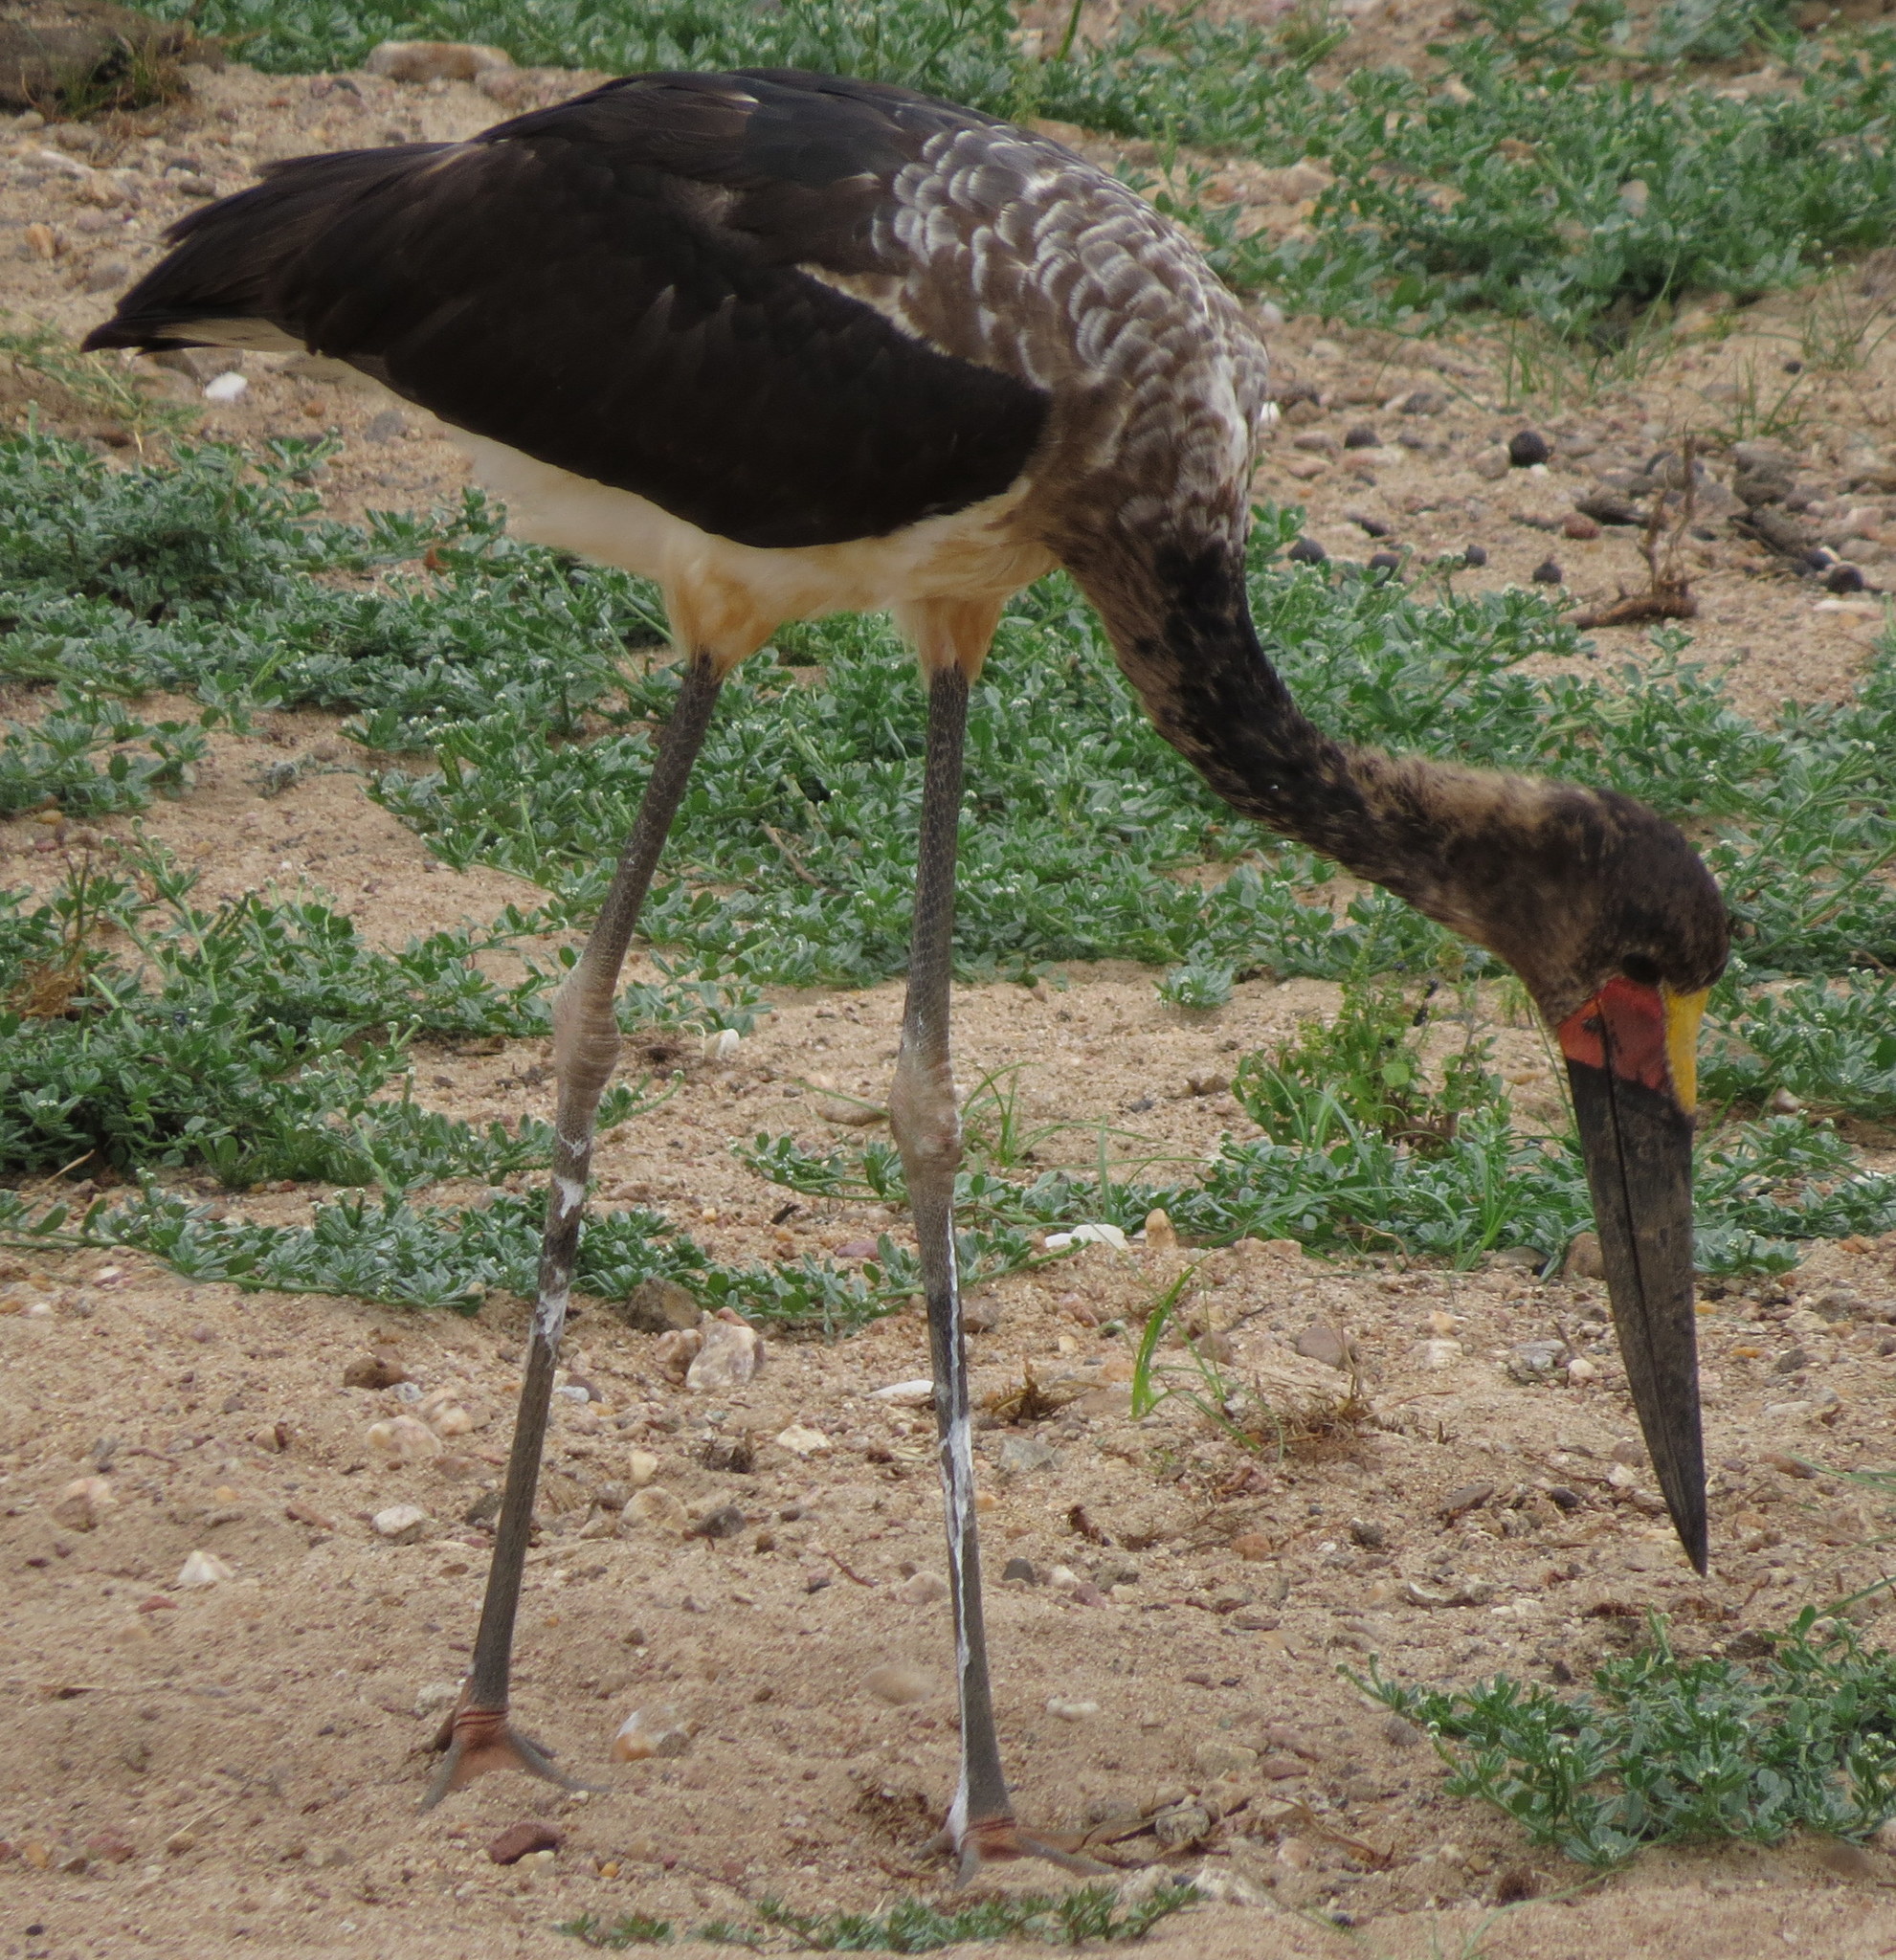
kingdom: Animalia
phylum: Chordata
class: Aves
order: Ciconiiformes
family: Ciconiidae
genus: Ephippiorhynchus
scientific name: Ephippiorhynchus senegalensis
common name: Saddle-billed stork
